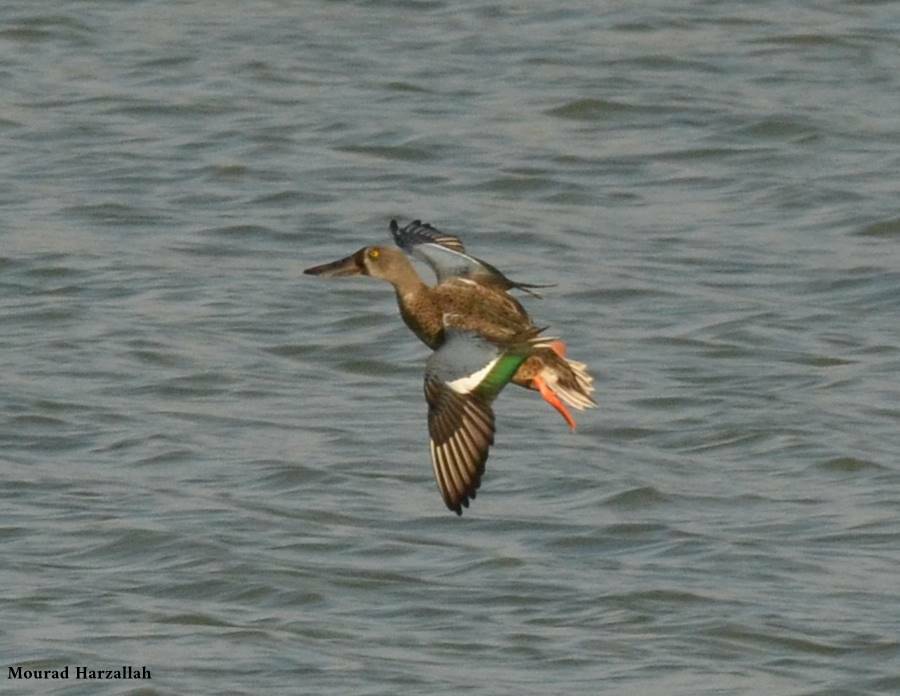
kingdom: Animalia
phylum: Chordata
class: Aves
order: Anseriformes
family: Anatidae
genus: Spatula
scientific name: Spatula clypeata
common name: Northern shoveler
